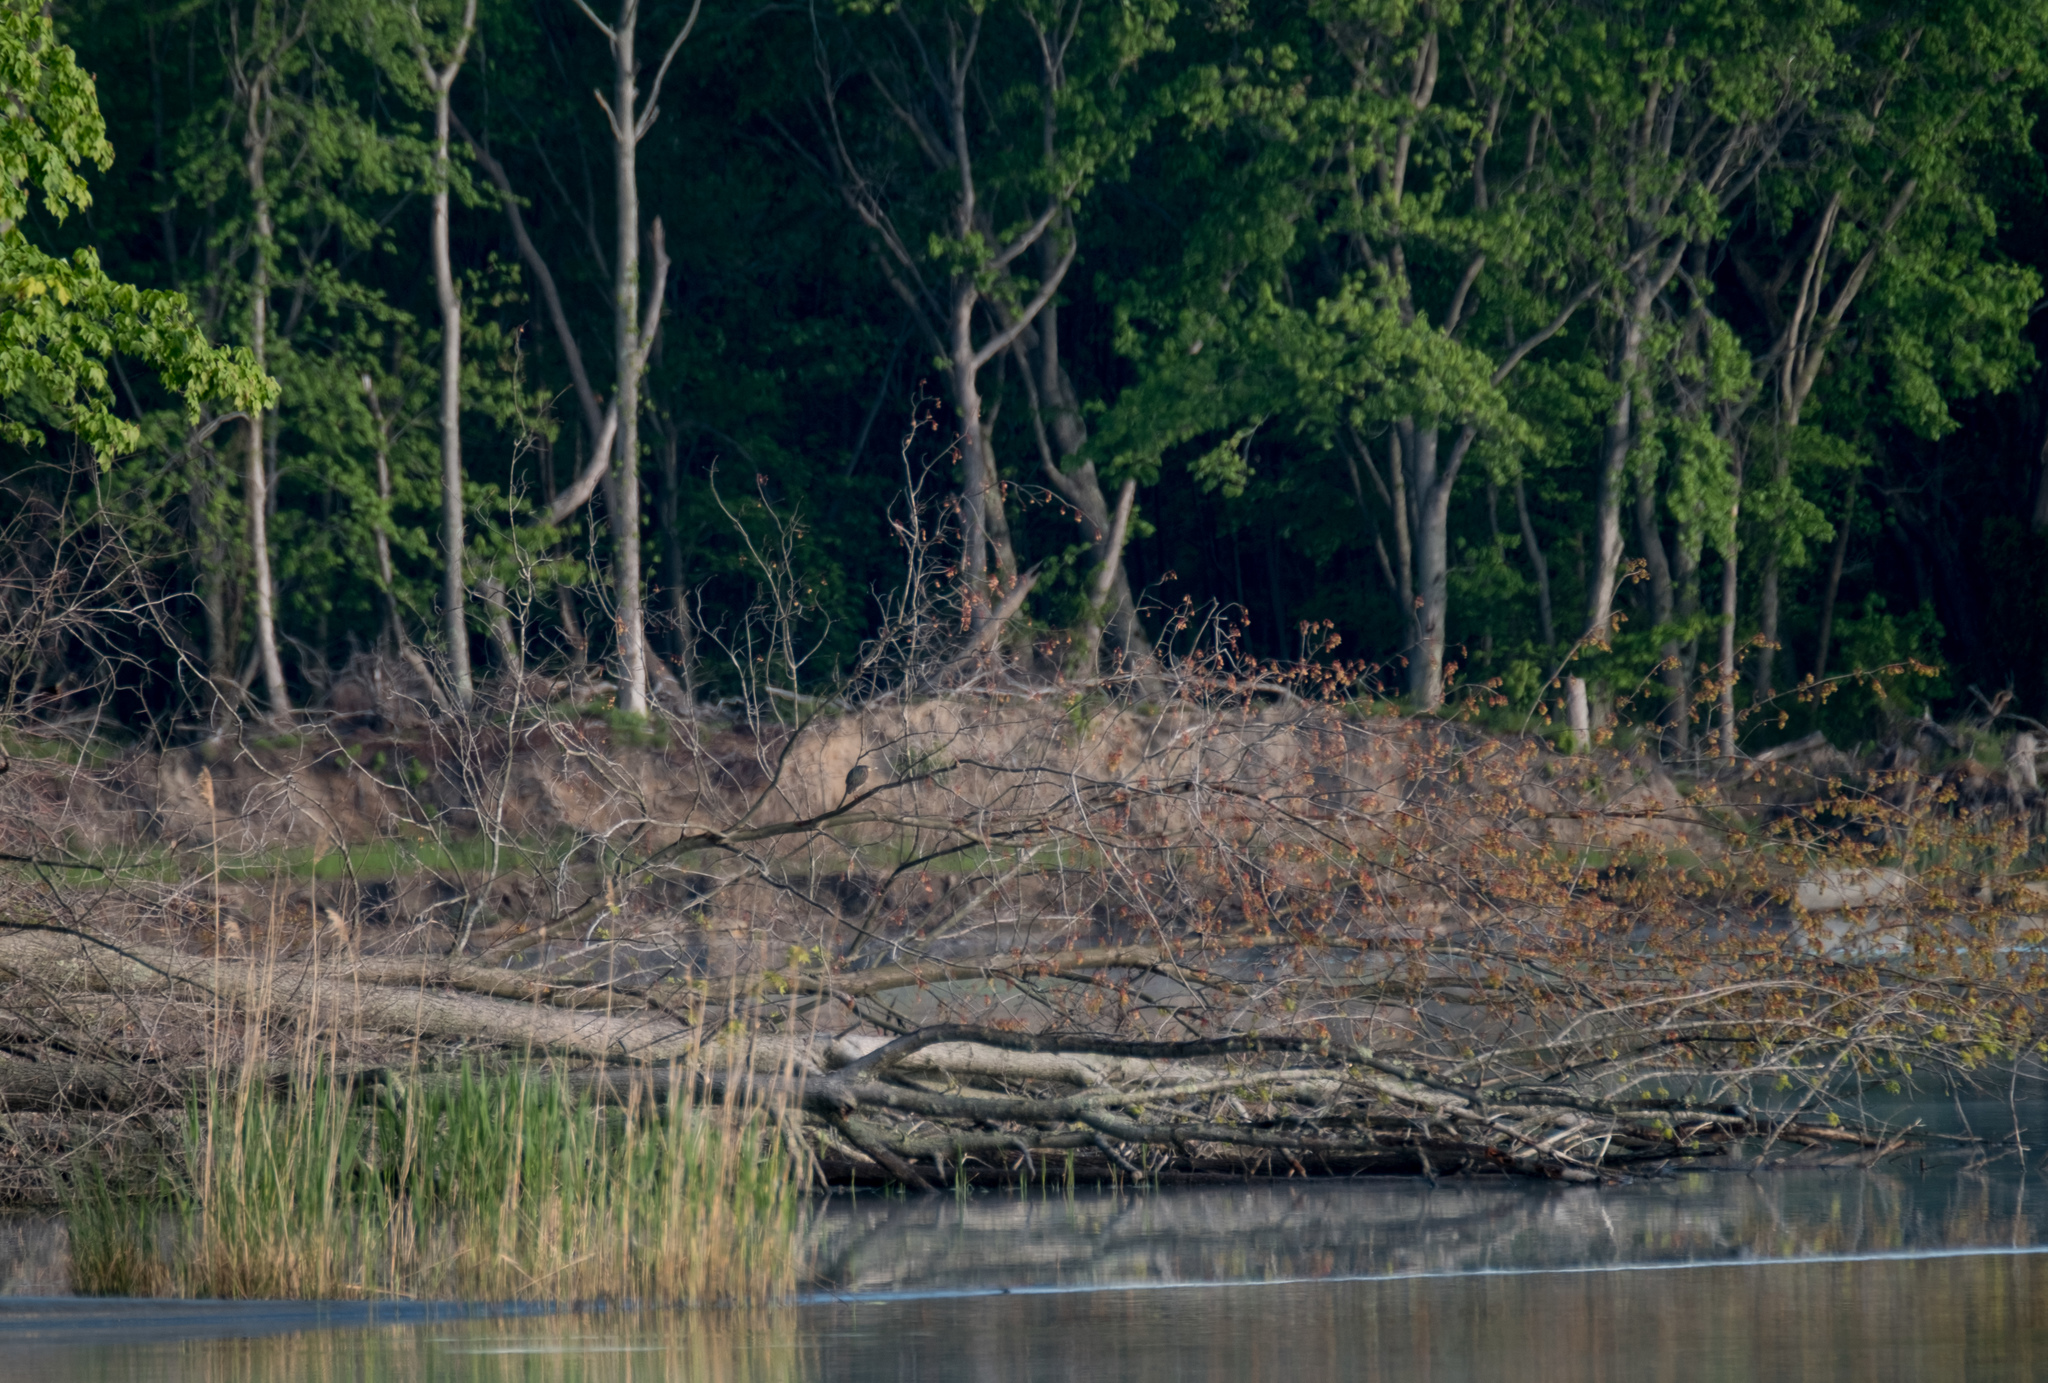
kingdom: Animalia
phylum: Chordata
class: Aves
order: Pelecaniformes
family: Ardeidae
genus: Butorides
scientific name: Butorides virescens
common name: Green heron
